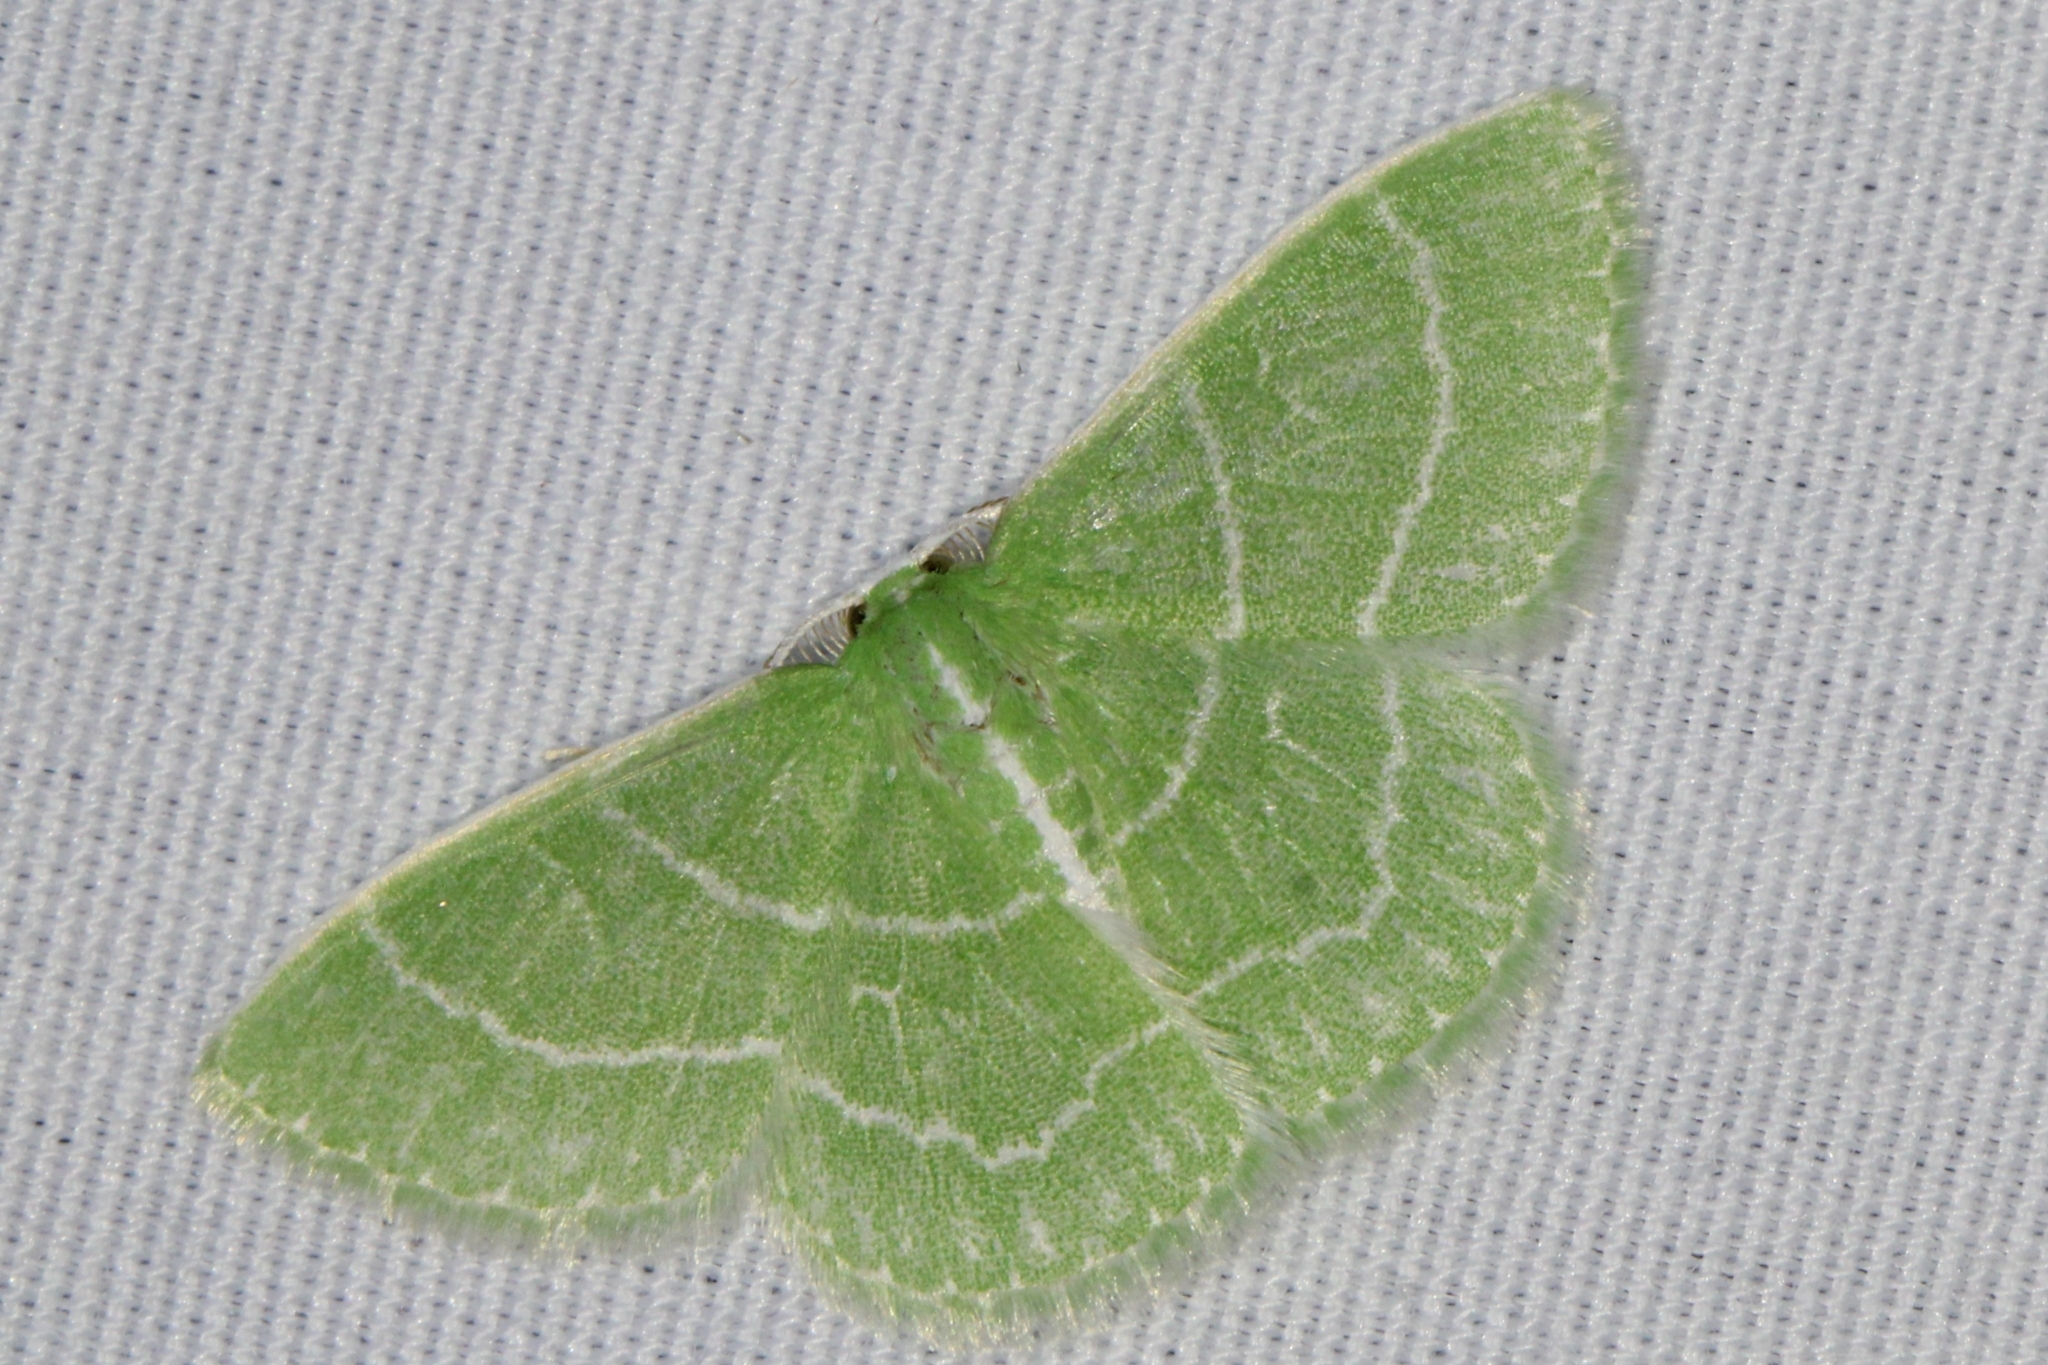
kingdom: Animalia
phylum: Arthropoda
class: Insecta
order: Lepidoptera
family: Geometridae
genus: Synchlora
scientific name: Synchlora aerata
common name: Wavy-lined emerald
